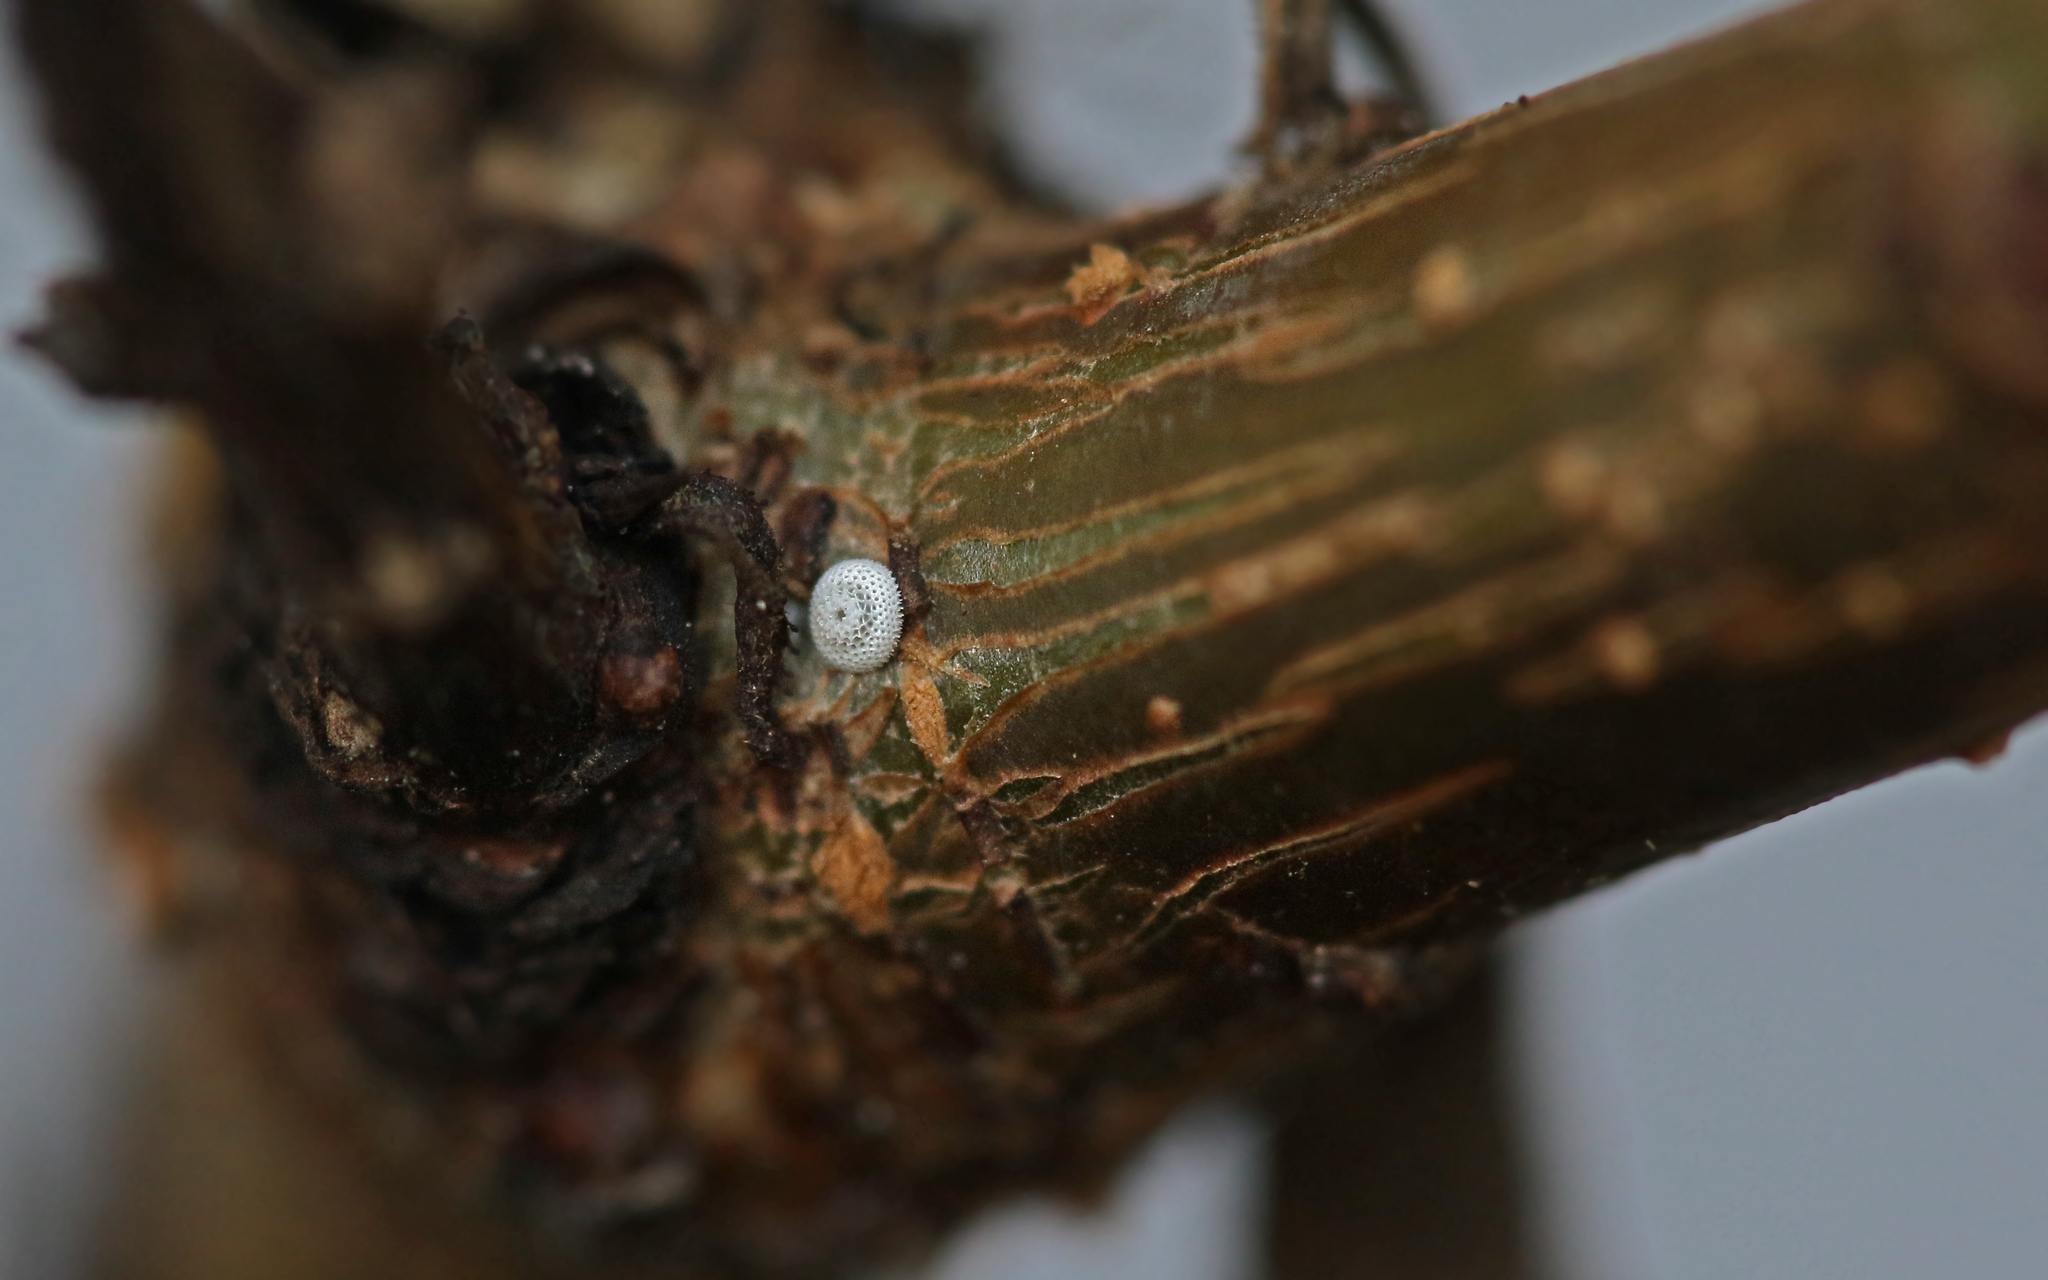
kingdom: Animalia
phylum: Arthropoda
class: Insecta
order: Lepidoptera
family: Lycaenidae
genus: Thecla
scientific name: Thecla betulae
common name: Brown hairstreak
